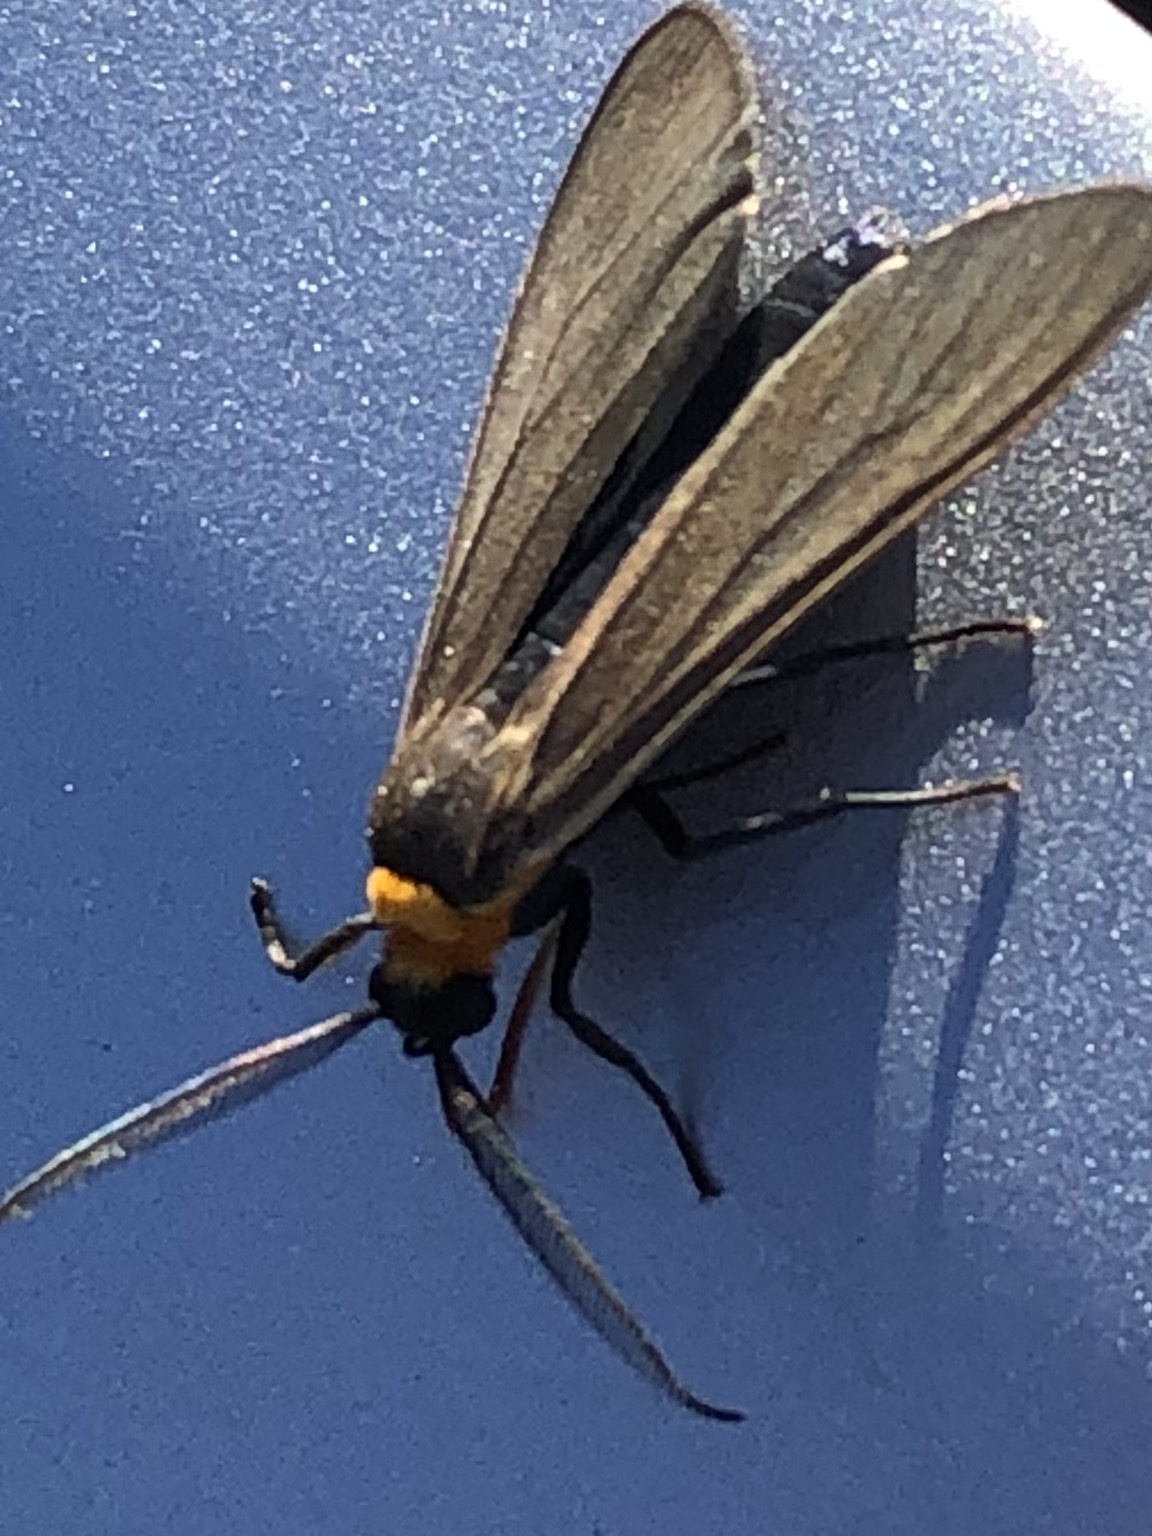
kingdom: Animalia
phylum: Arthropoda
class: Insecta
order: Lepidoptera
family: Erebidae
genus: Cisseps
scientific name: Cisseps fulvicollis
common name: Yellow-collared scape moth
